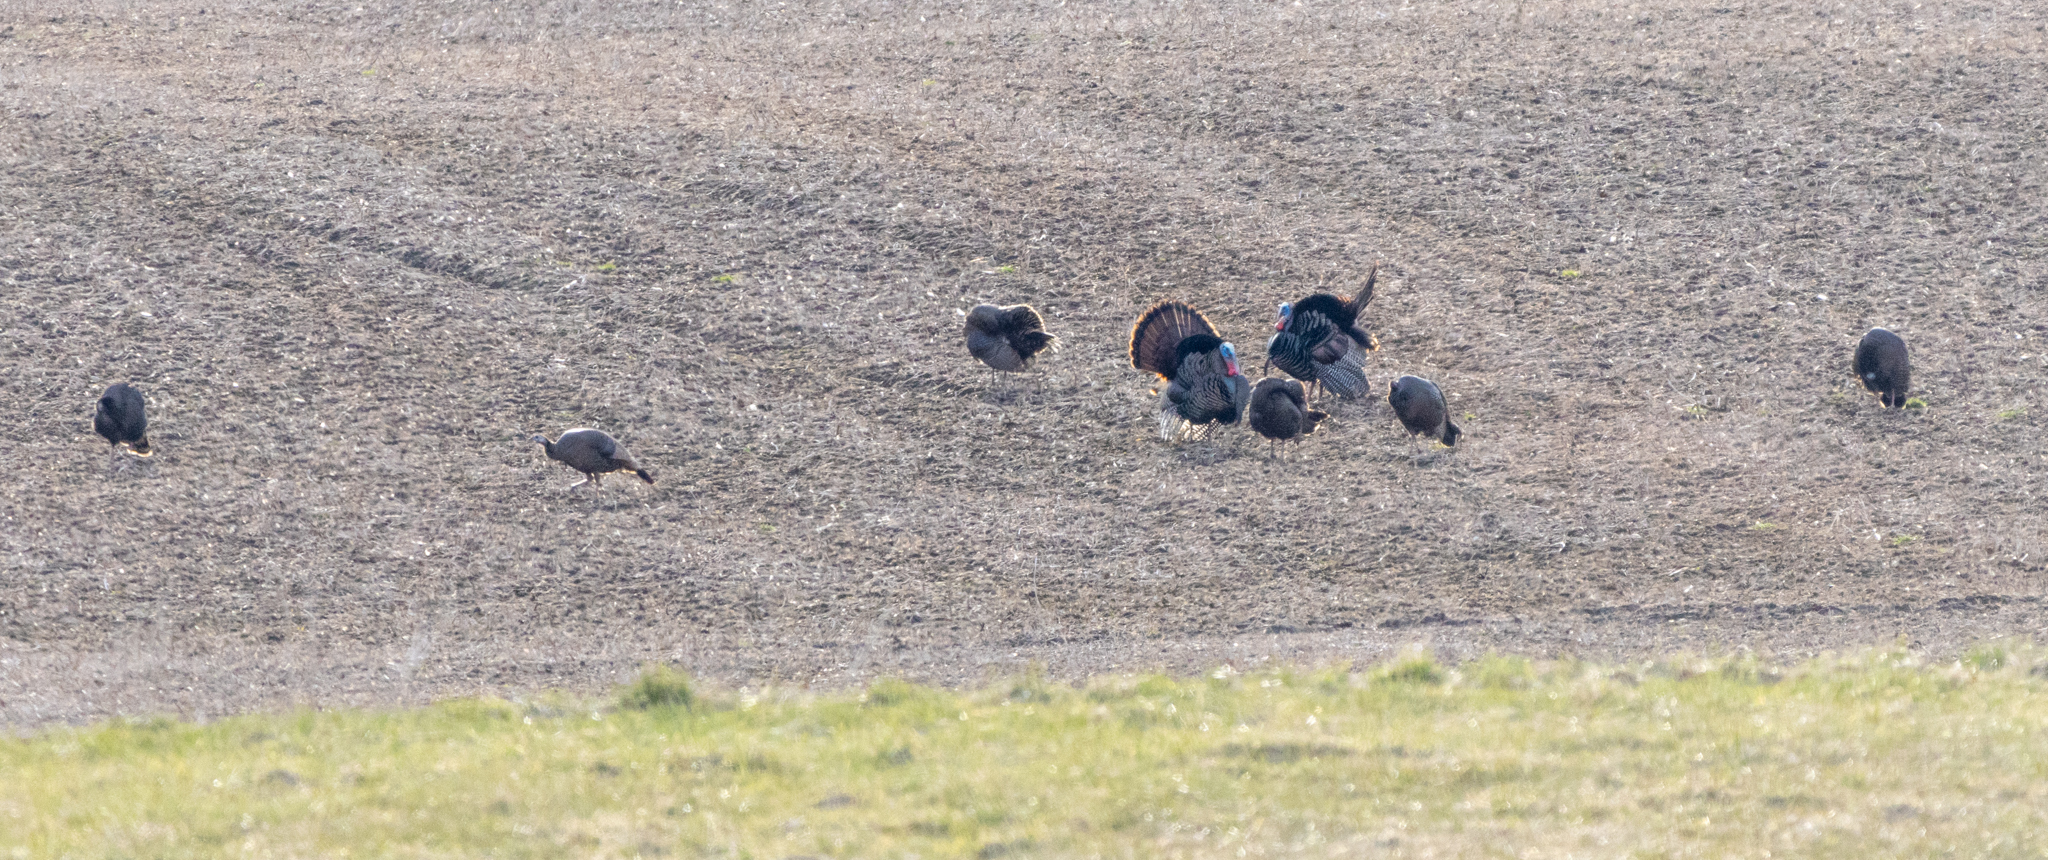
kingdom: Animalia
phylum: Chordata
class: Aves
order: Galliformes
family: Phasianidae
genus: Meleagris
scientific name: Meleagris gallopavo
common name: Wild turkey
